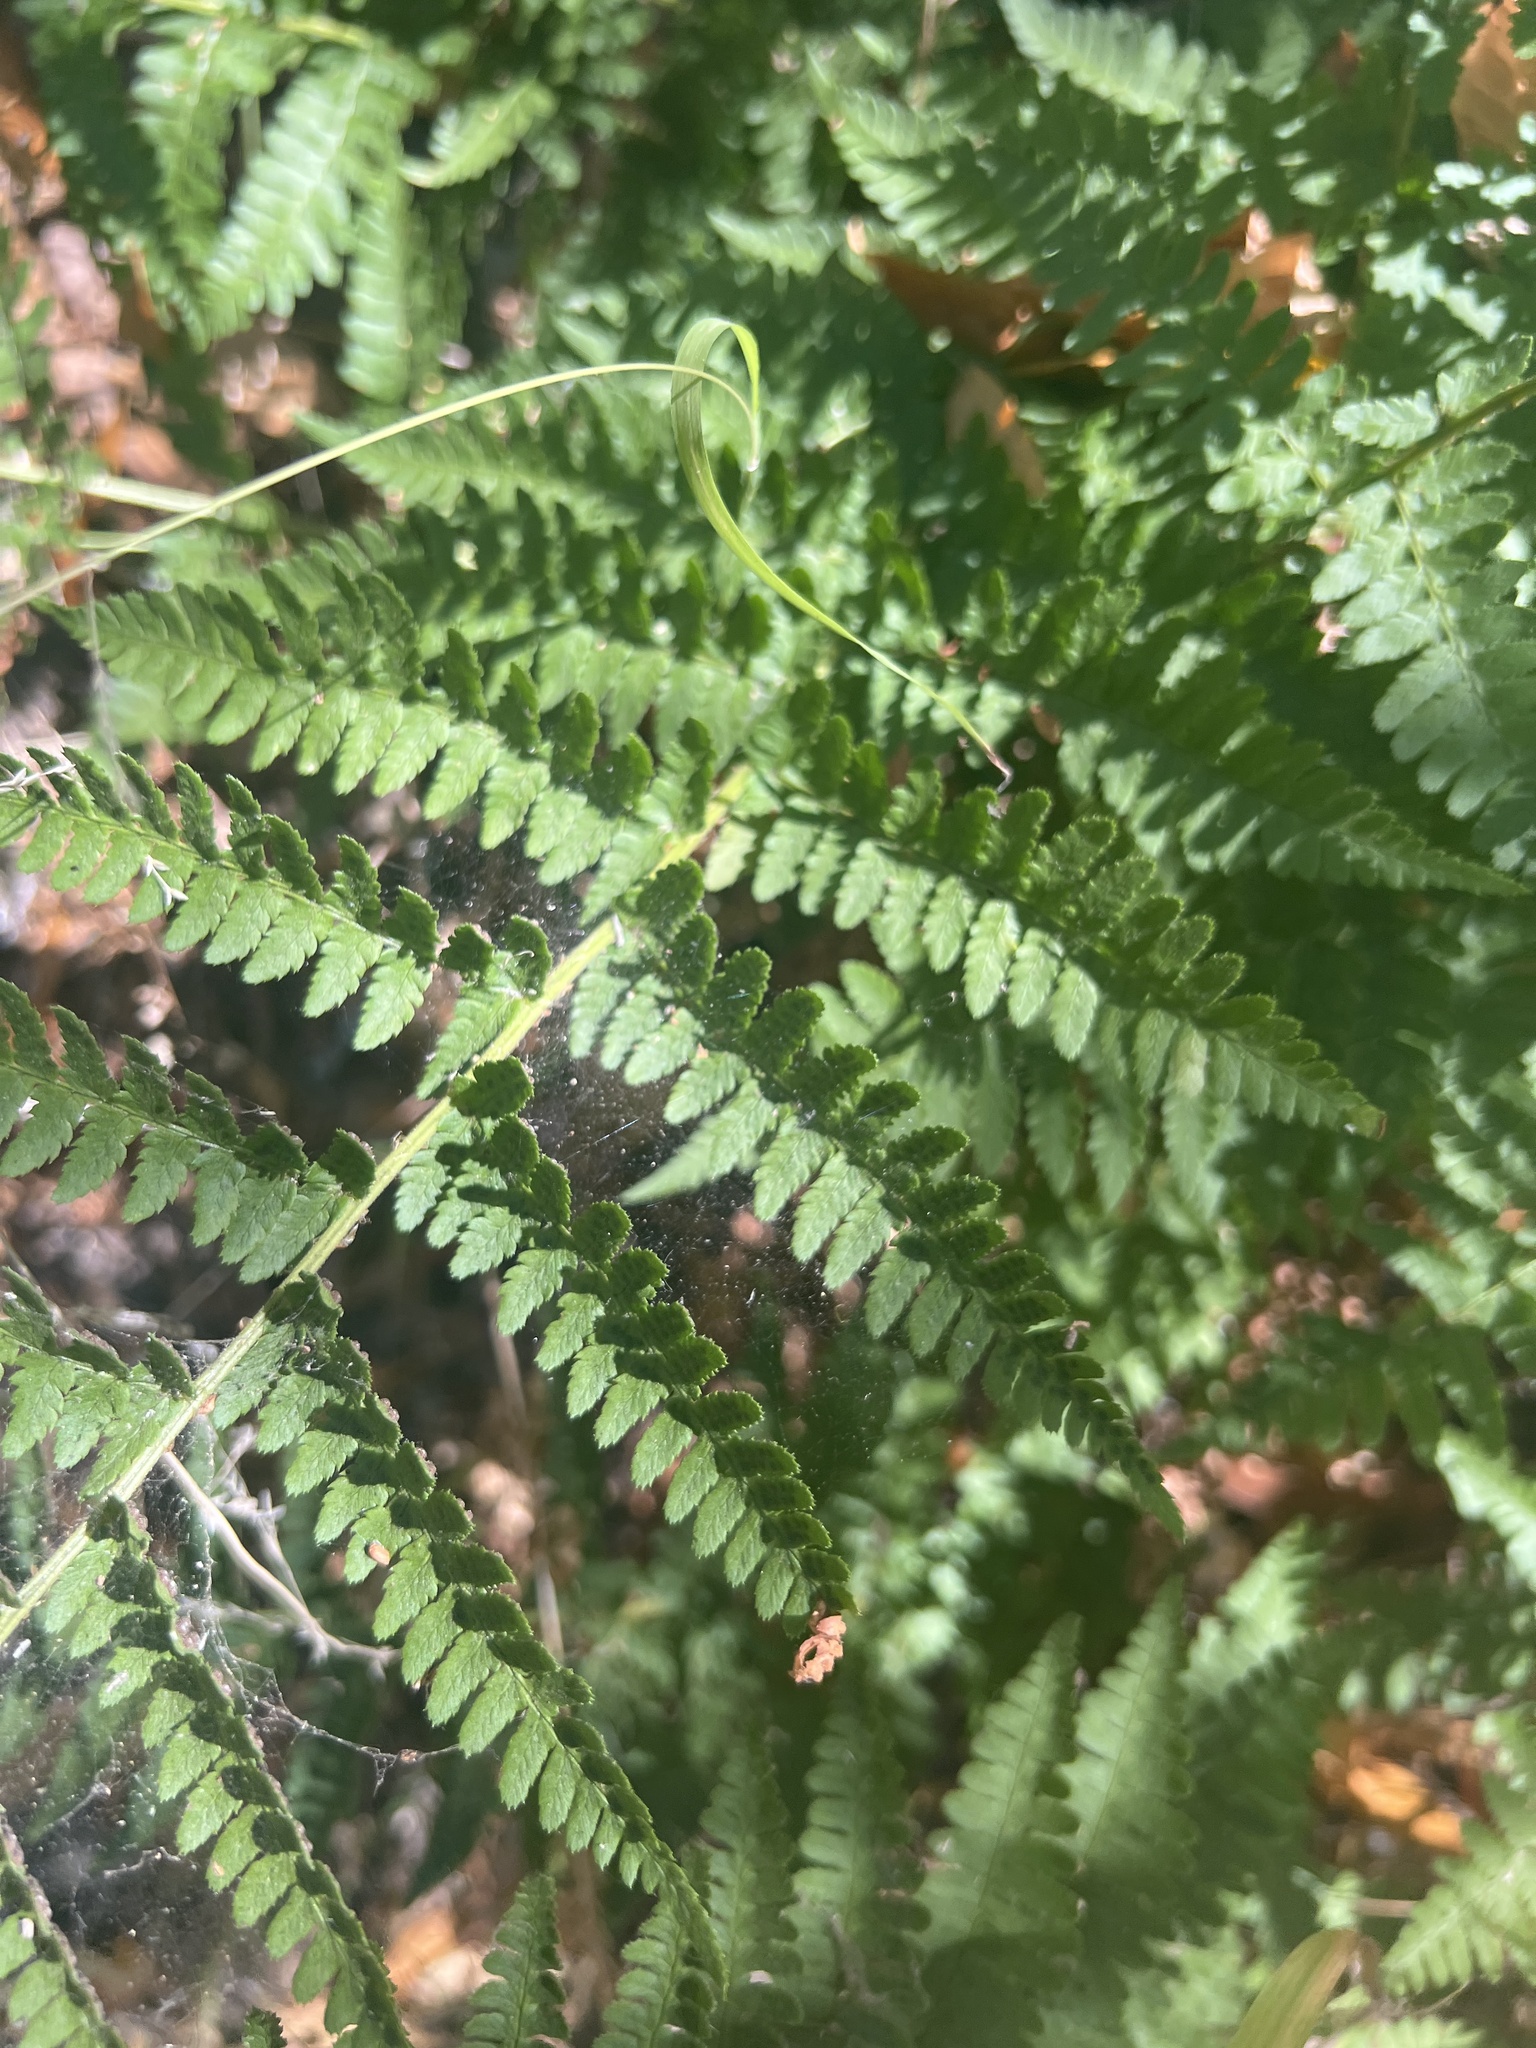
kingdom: Plantae
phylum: Tracheophyta
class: Polypodiopsida
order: Polypodiales
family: Dryopteridaceae
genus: Dryopteris
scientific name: Dryopteris arguta
